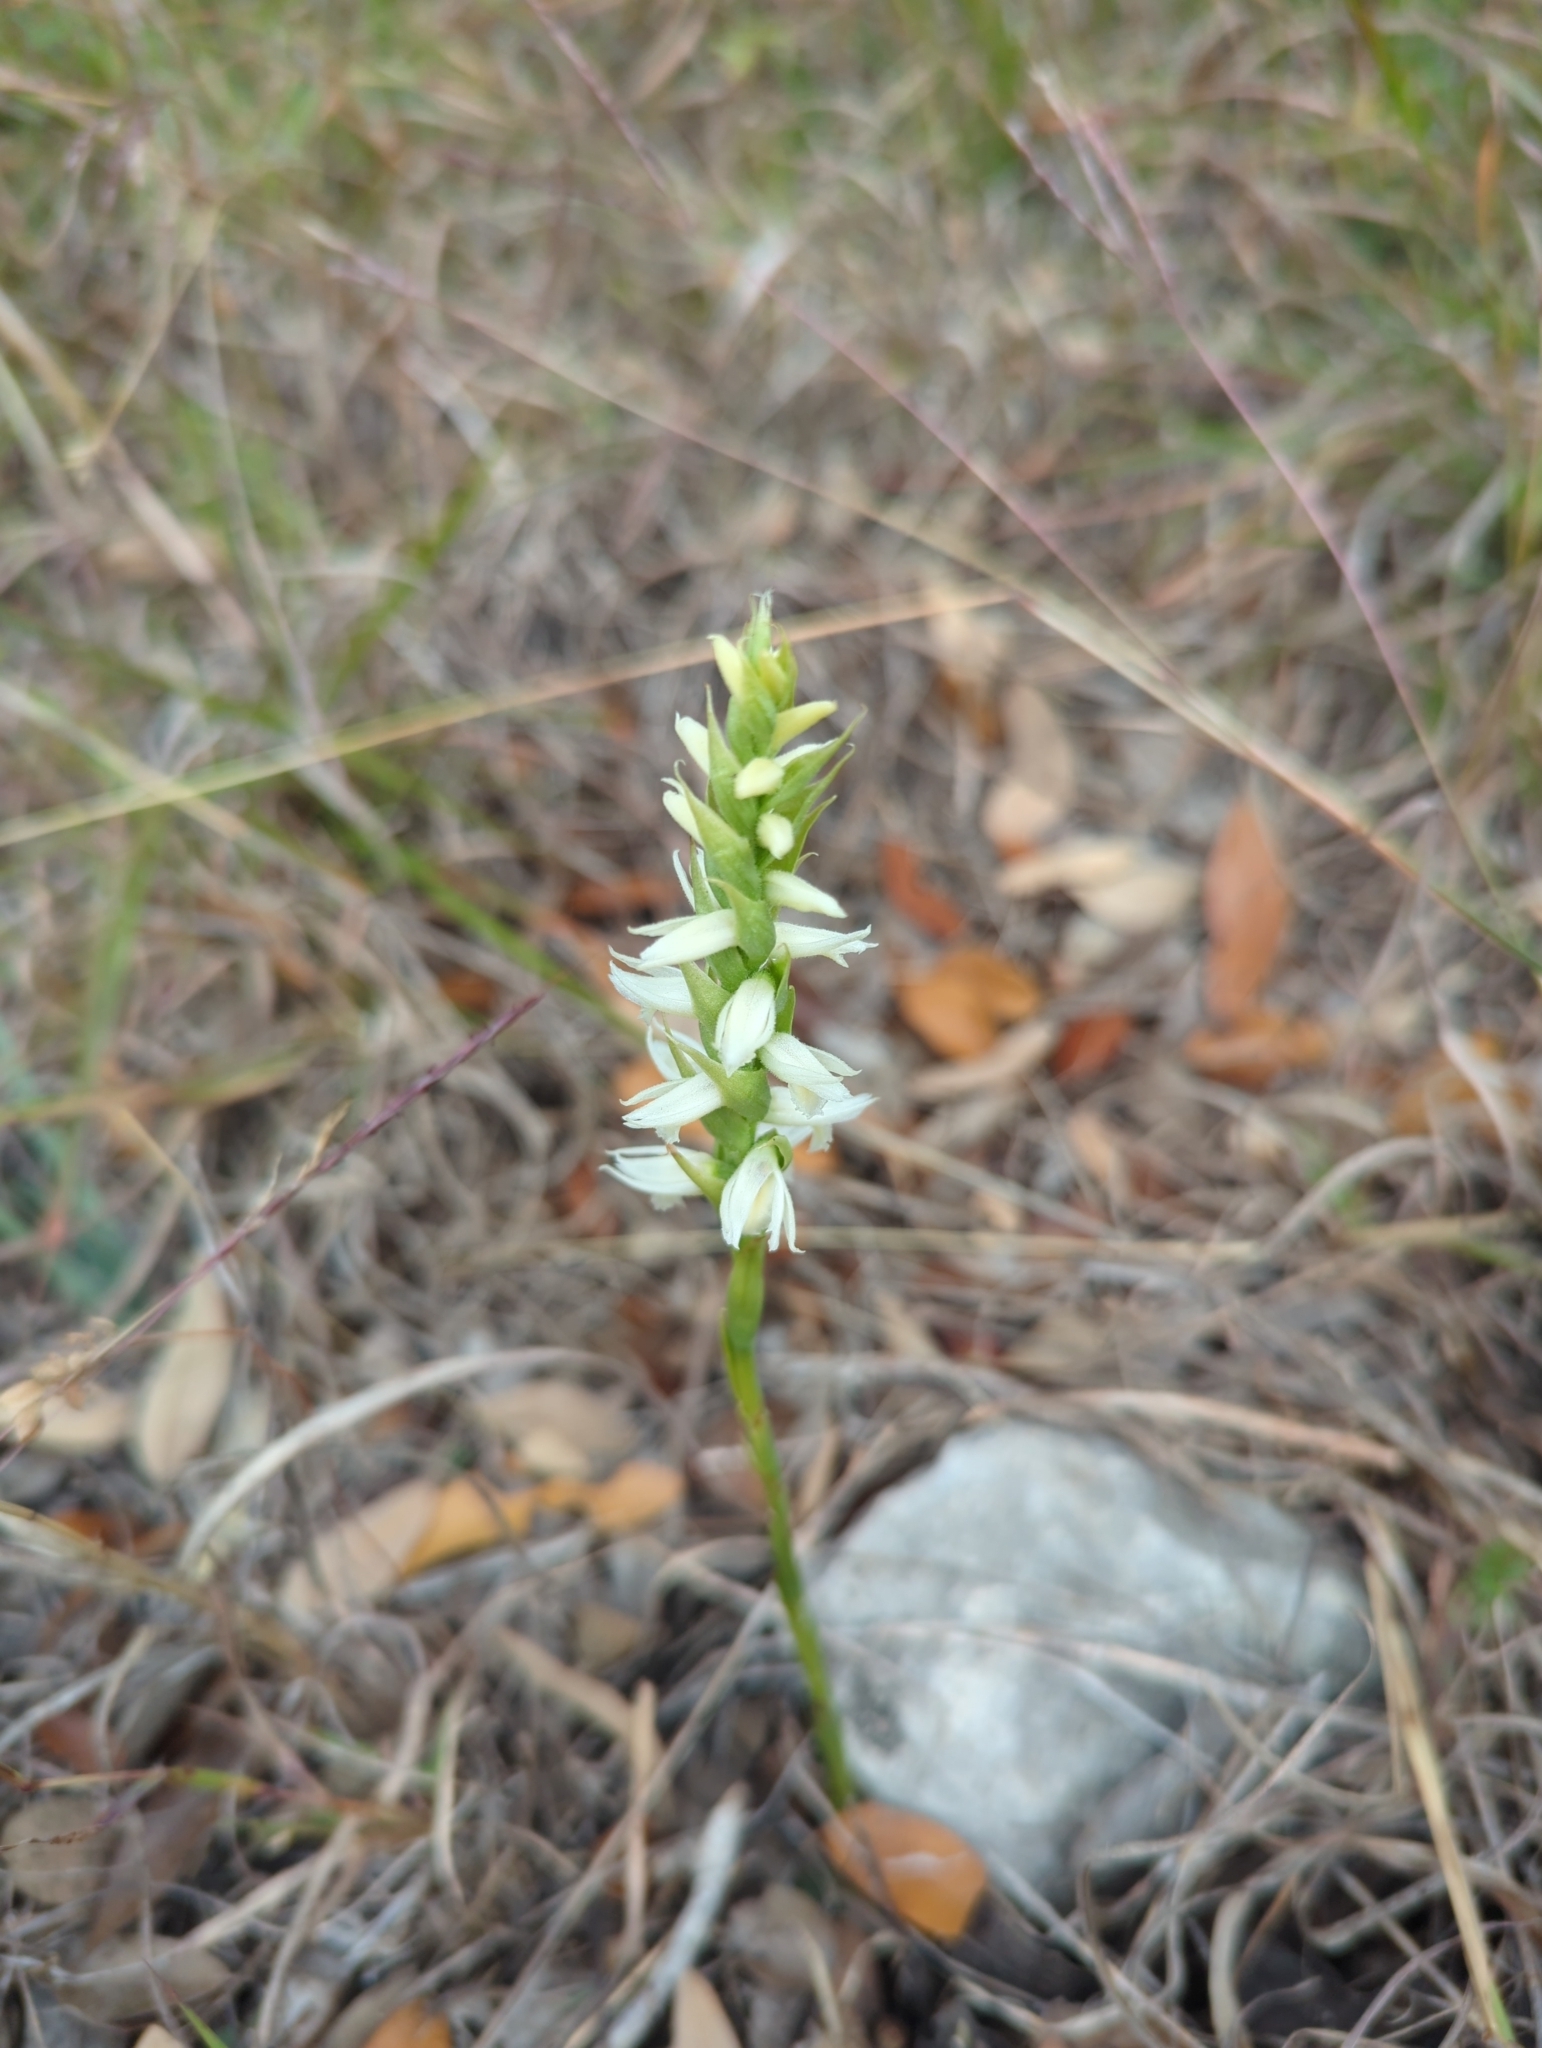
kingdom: Plantae
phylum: Tracheophyta
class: Liliopsida
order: Asparagales
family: Orchidaceae
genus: Spiranthes
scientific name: Spiranthes magnicamporum
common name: Great plains ladies'-tresses
